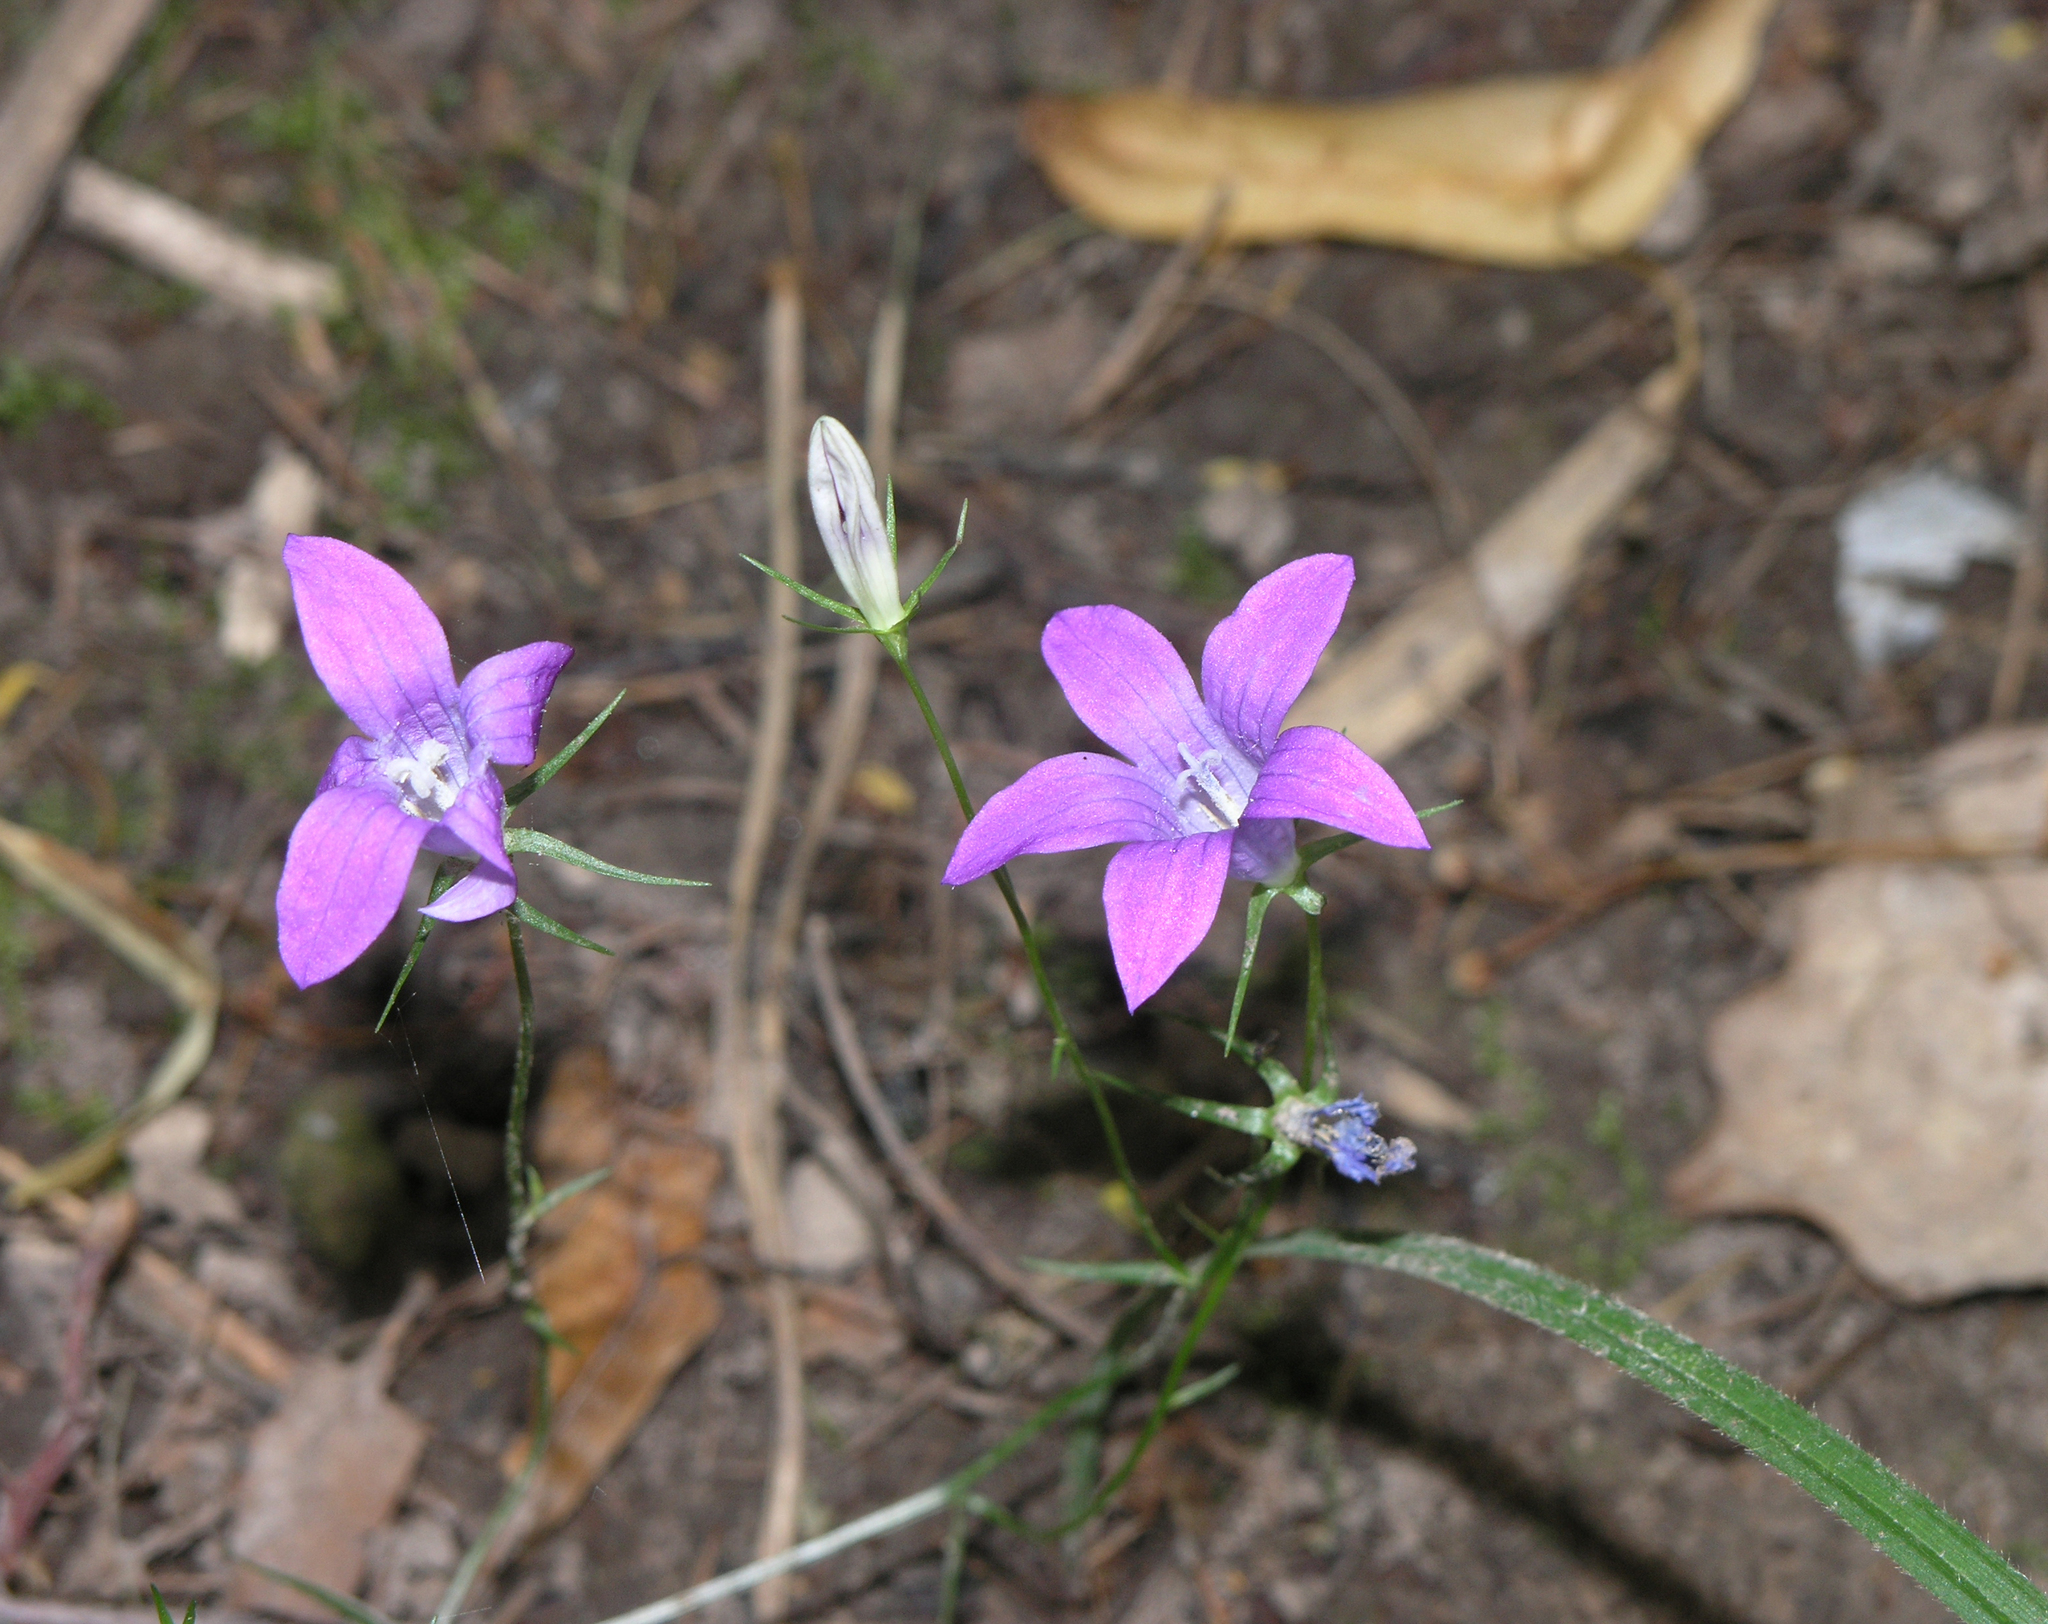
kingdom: Plantae
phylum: Tracheophyta
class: Magnoliopsida
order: Asterales
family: Campanulaceae
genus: Campanula
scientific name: Campanula patula
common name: Spreading bellflower
